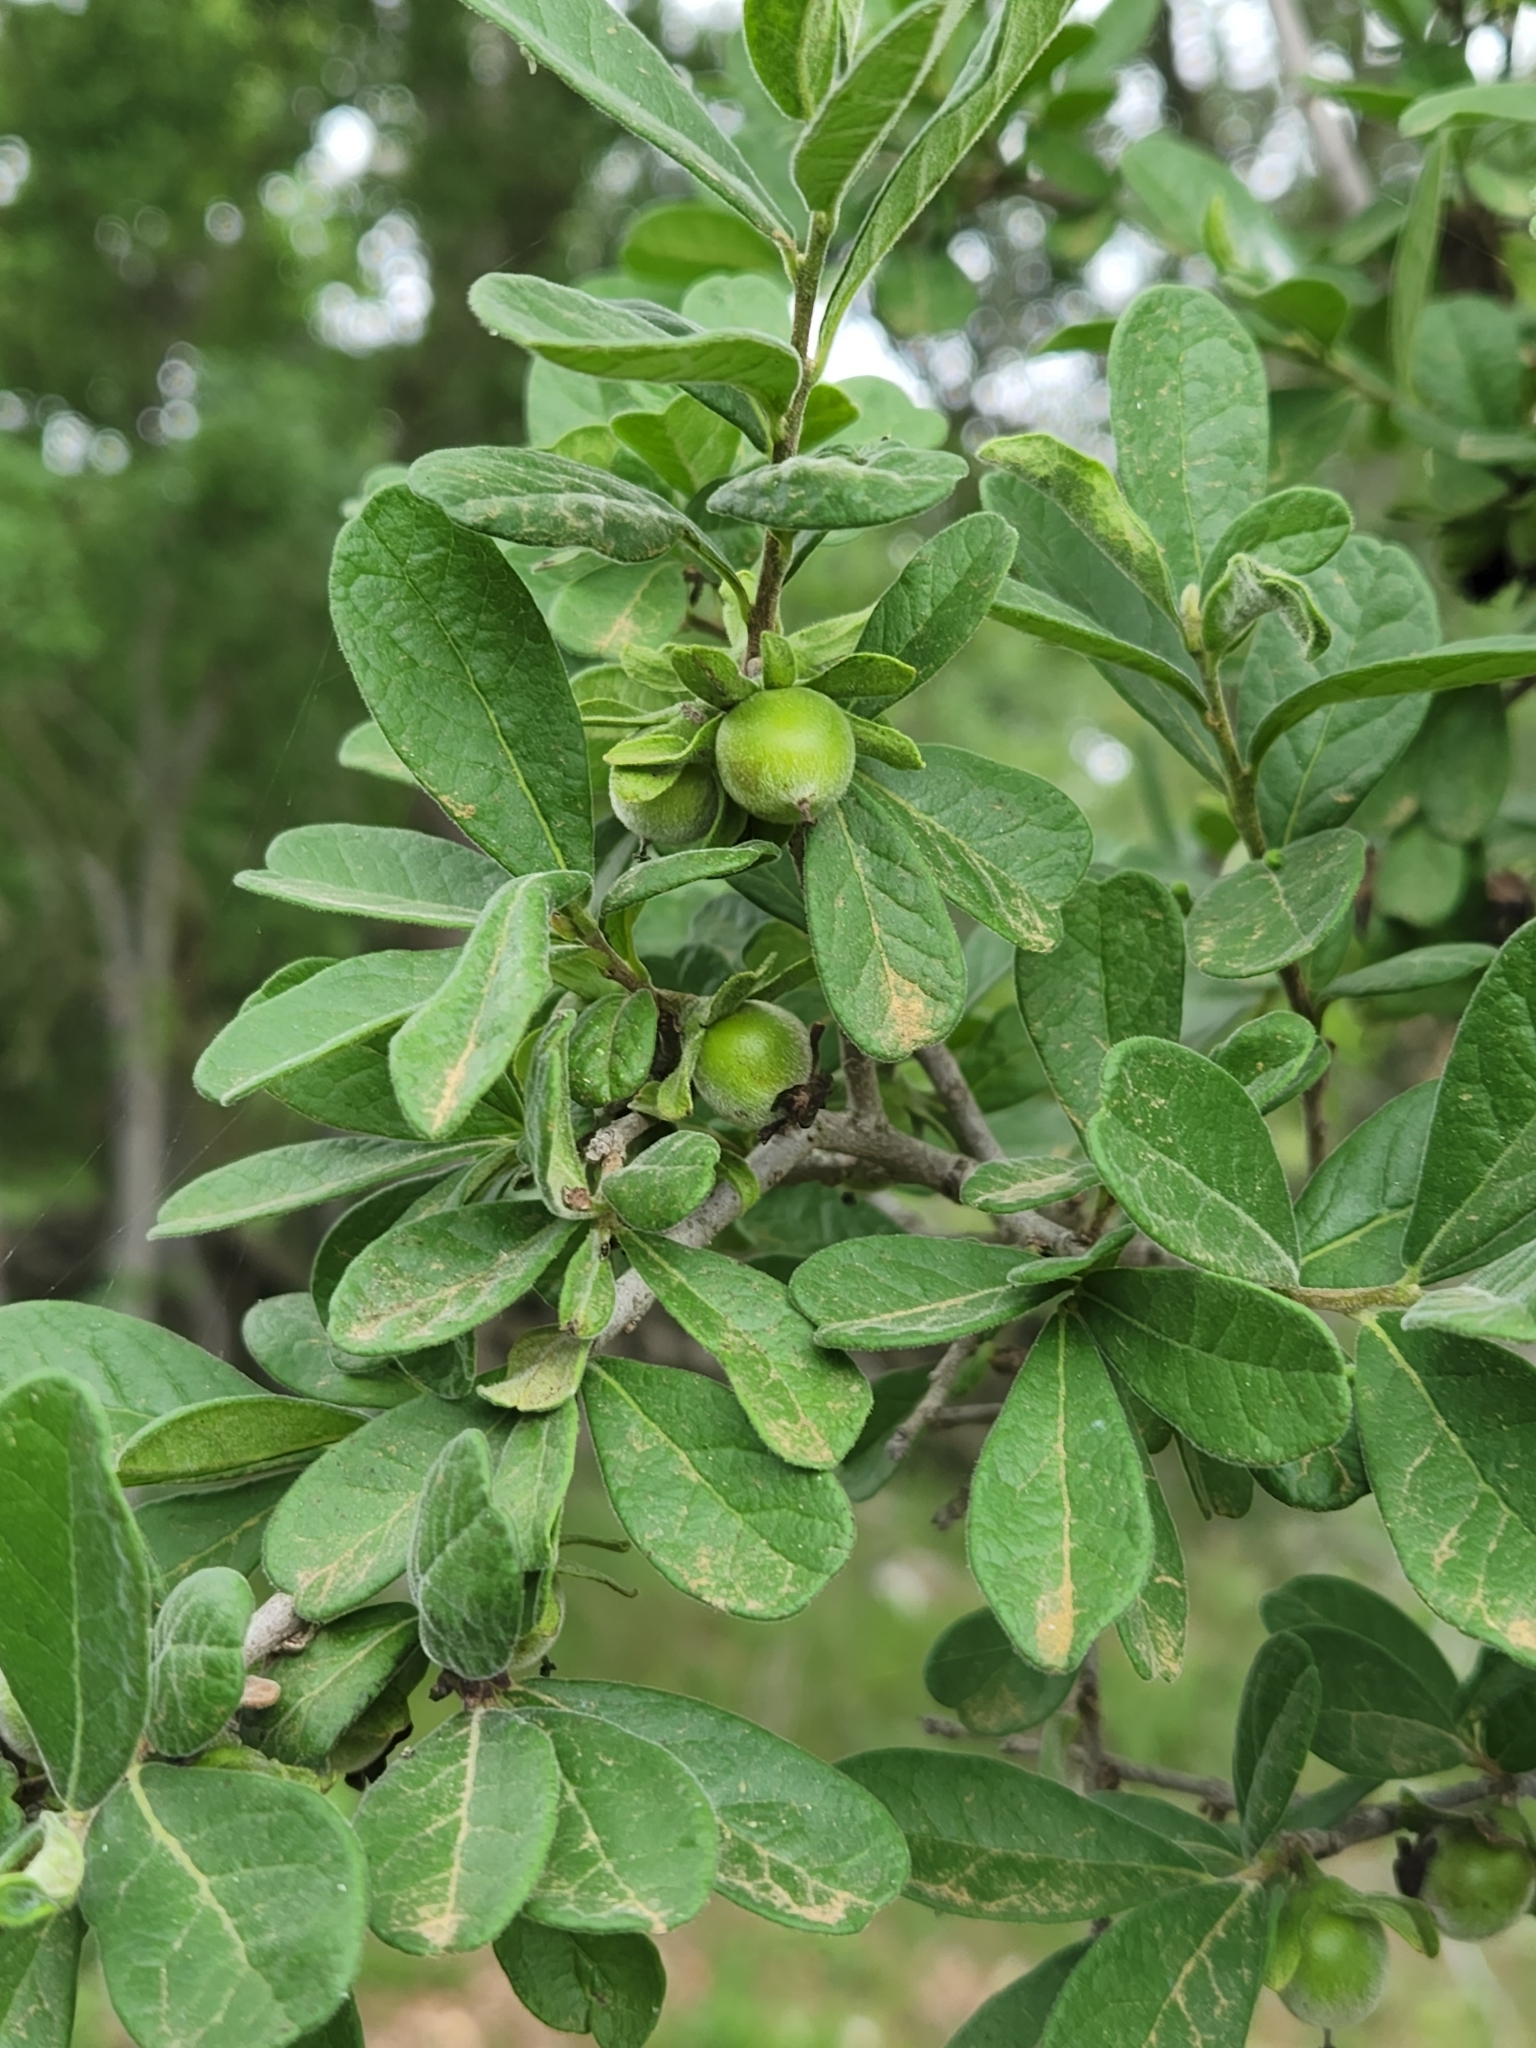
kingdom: Plantae
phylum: Tracheophyta
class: Magnoliopsida
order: Ericales
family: Ebenaceae
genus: Diospyros
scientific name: Diospyros texana
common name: Texas persimmon
